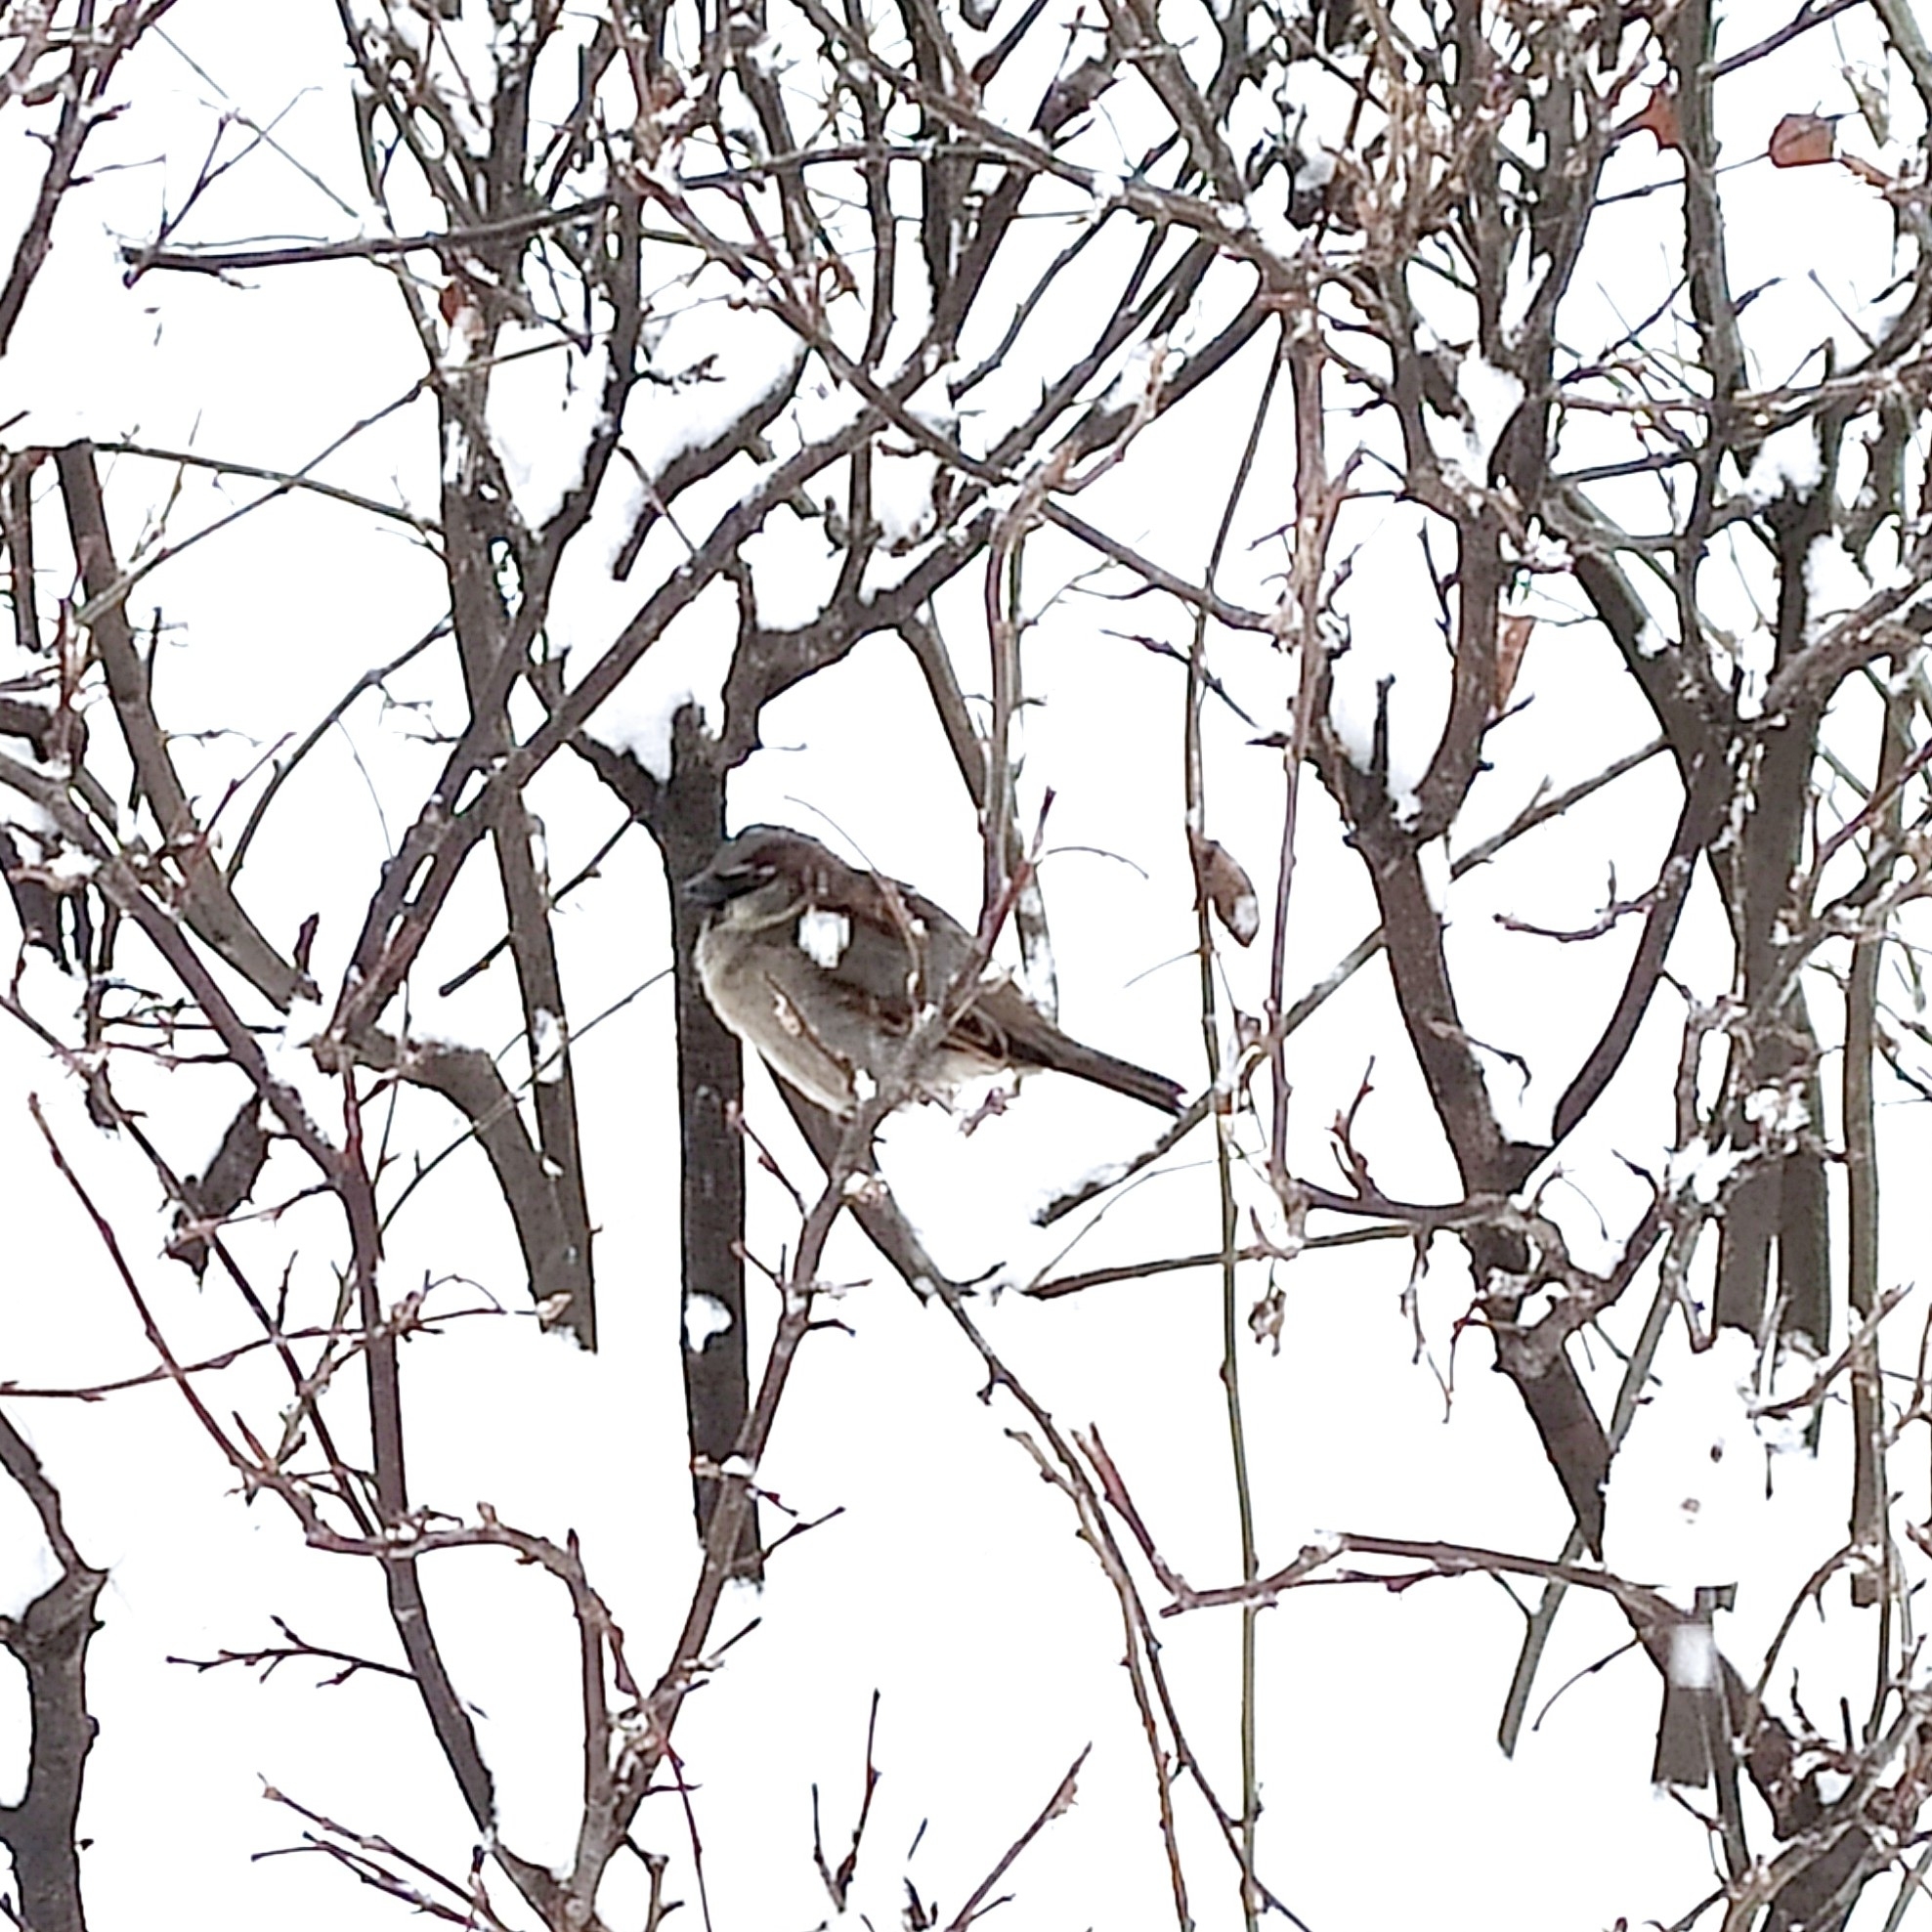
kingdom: Animalia
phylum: Chordata
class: Aves
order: Passeriformes
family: Passeridae
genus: Passer
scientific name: Passer domesticus
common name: House sparrow
